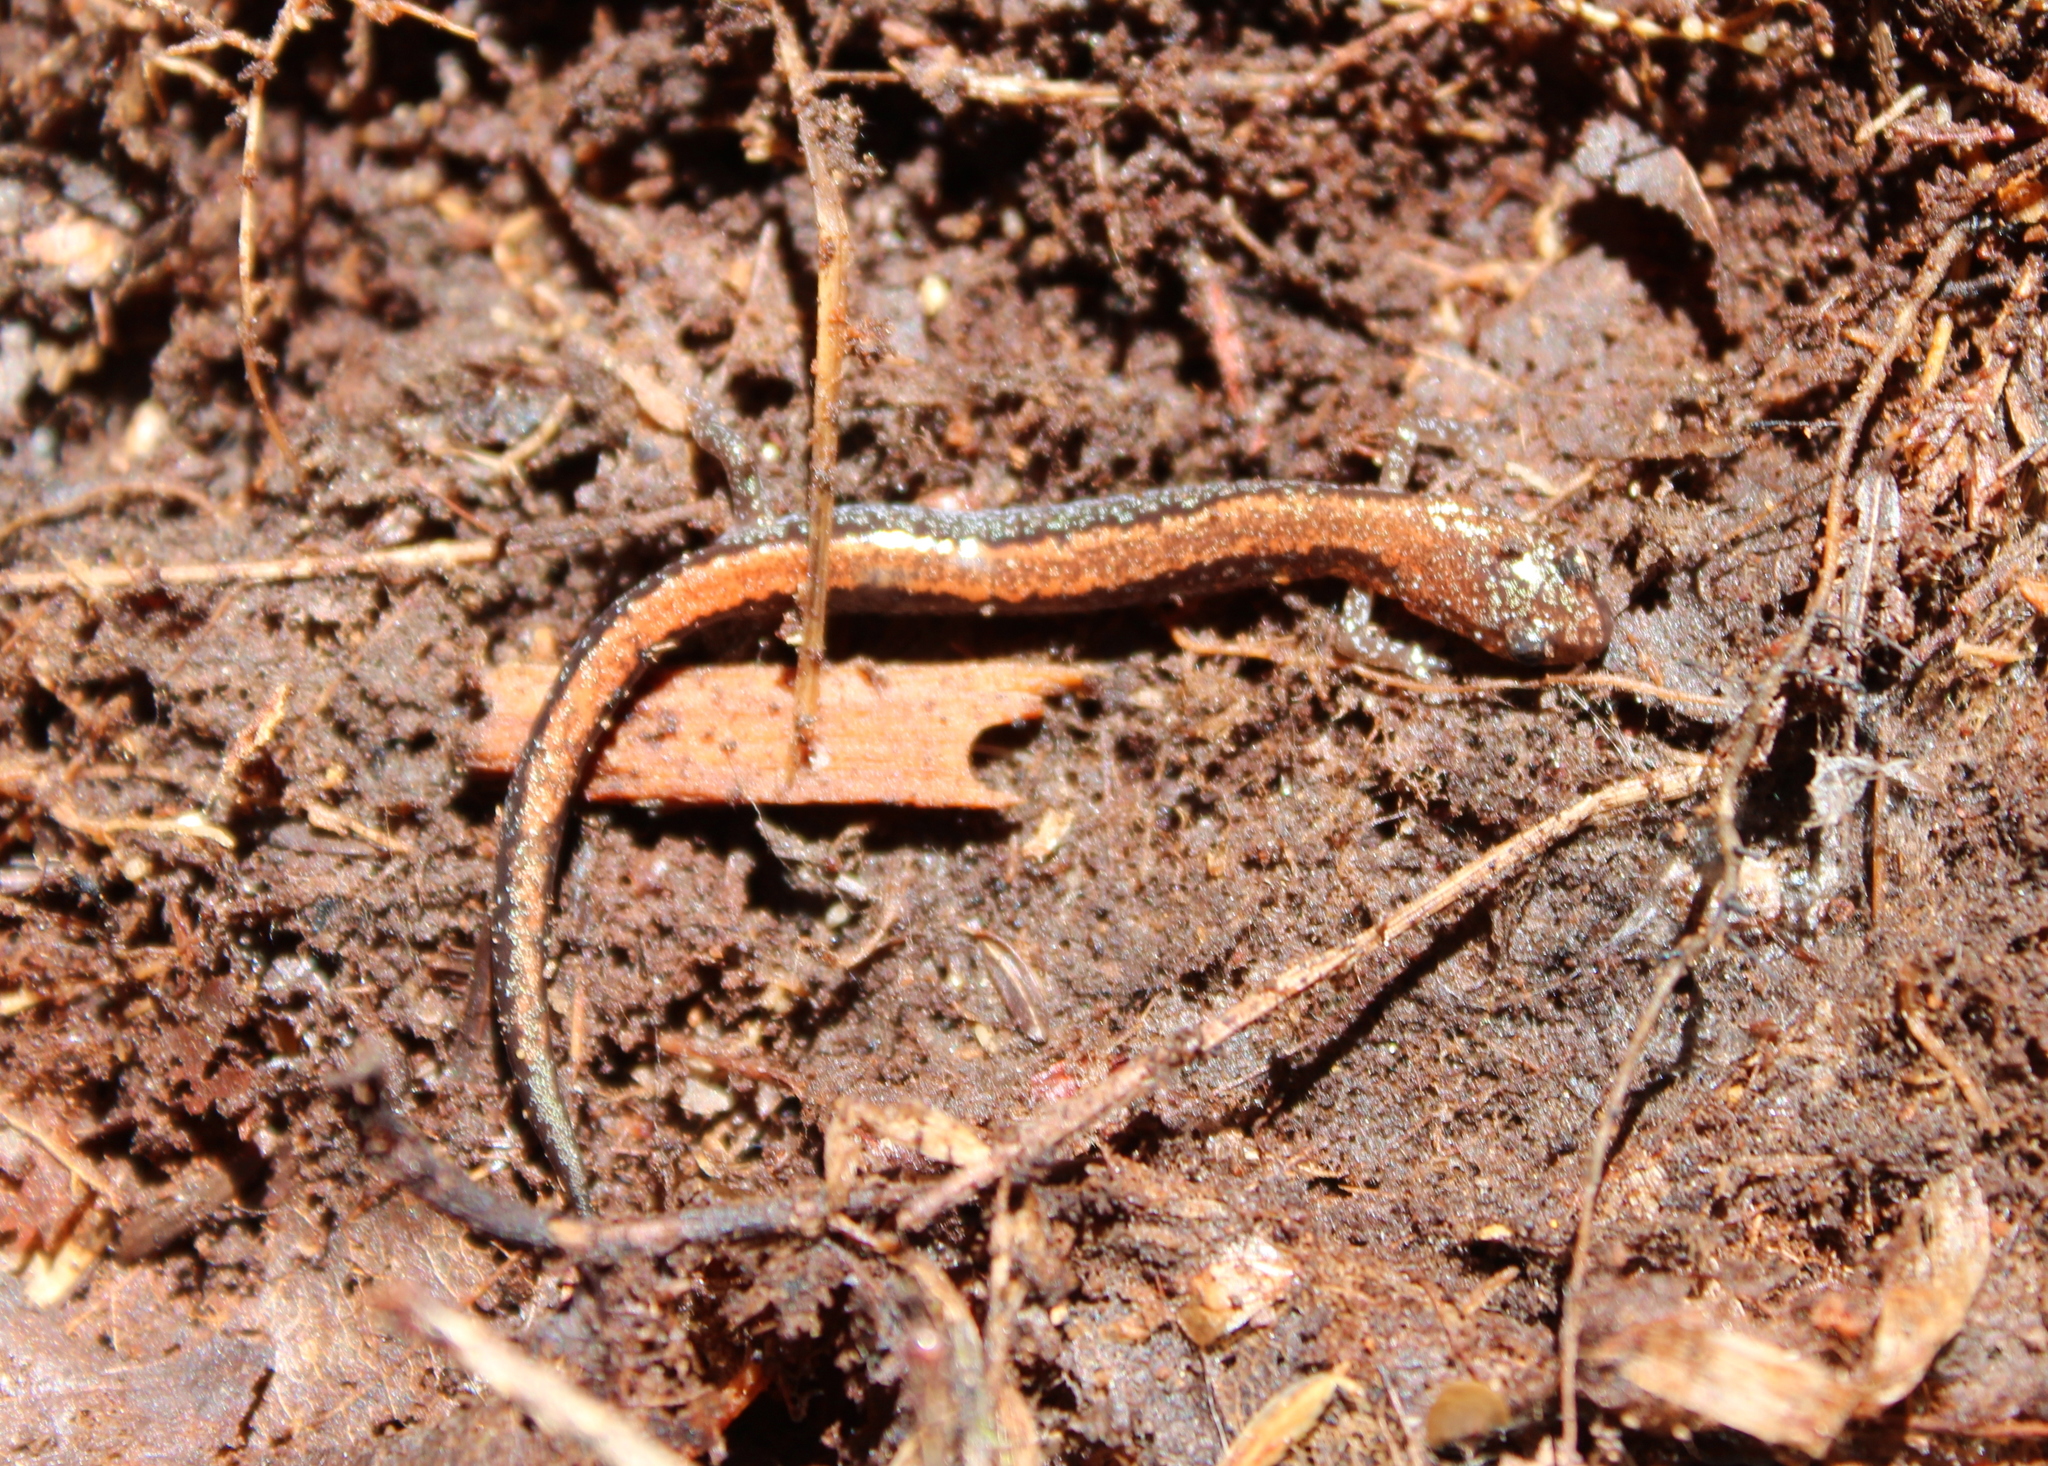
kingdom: Animalia
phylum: Chordata
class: Amphibia
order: Caudata
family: Plethodontidae
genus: Plethodon
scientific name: Plethodon cinereus
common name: Redback salamander
